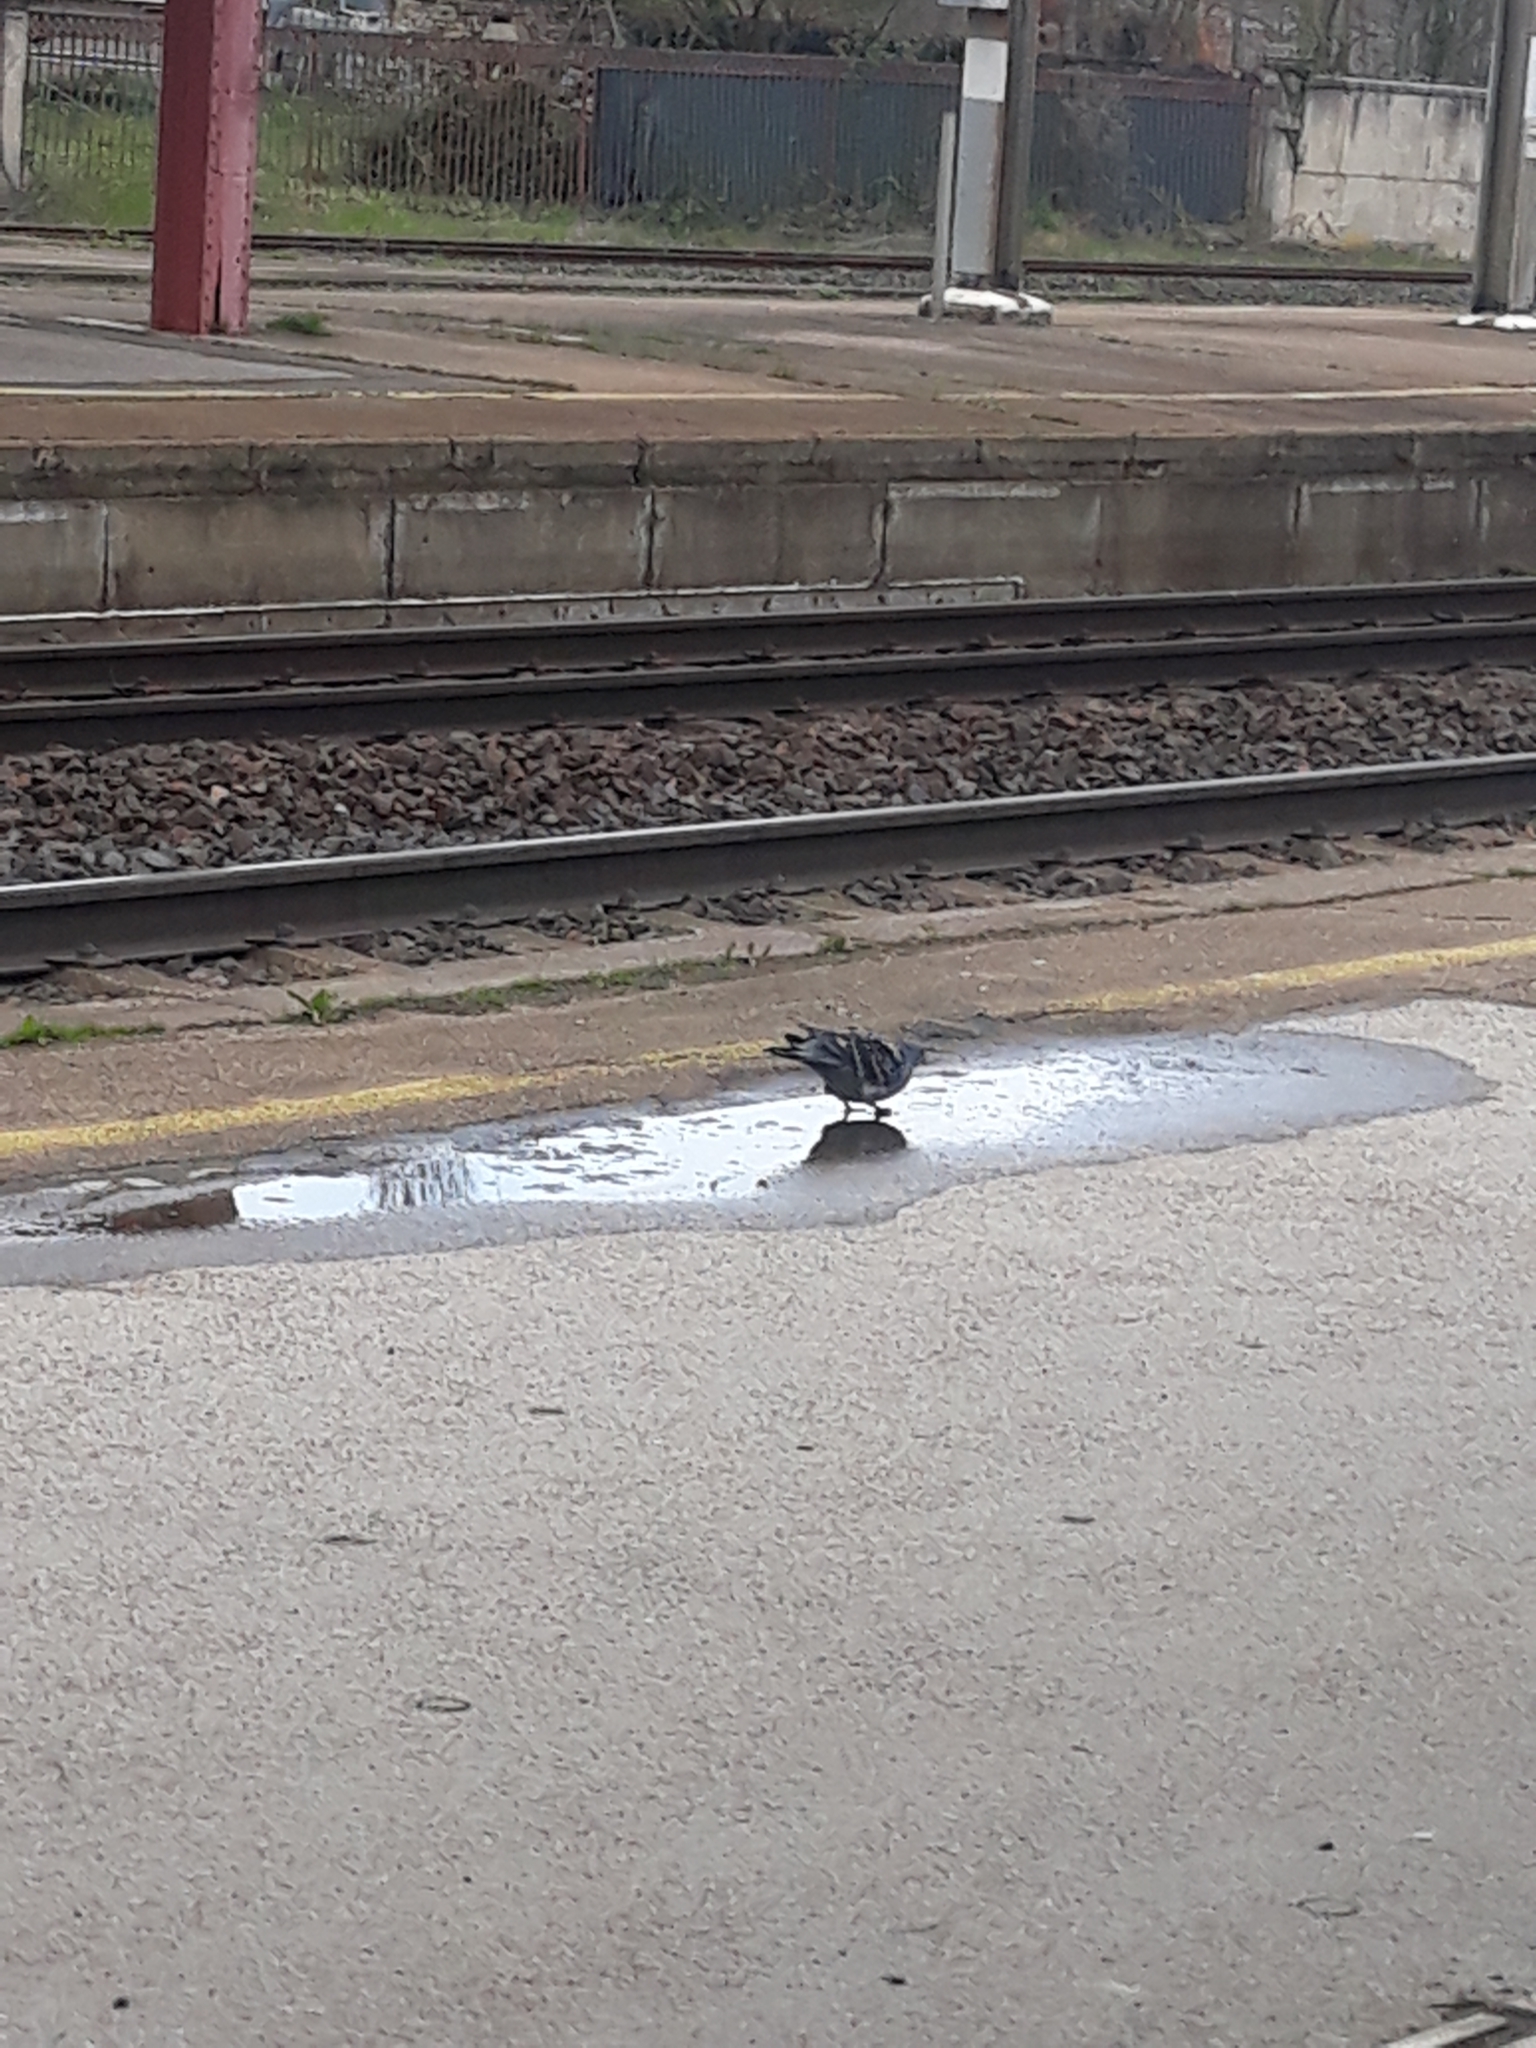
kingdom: Animalia
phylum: Chordata
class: Aves
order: Columbiformes
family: Columbidae
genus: Columba
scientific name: Columba livia
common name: Rock pigeon
